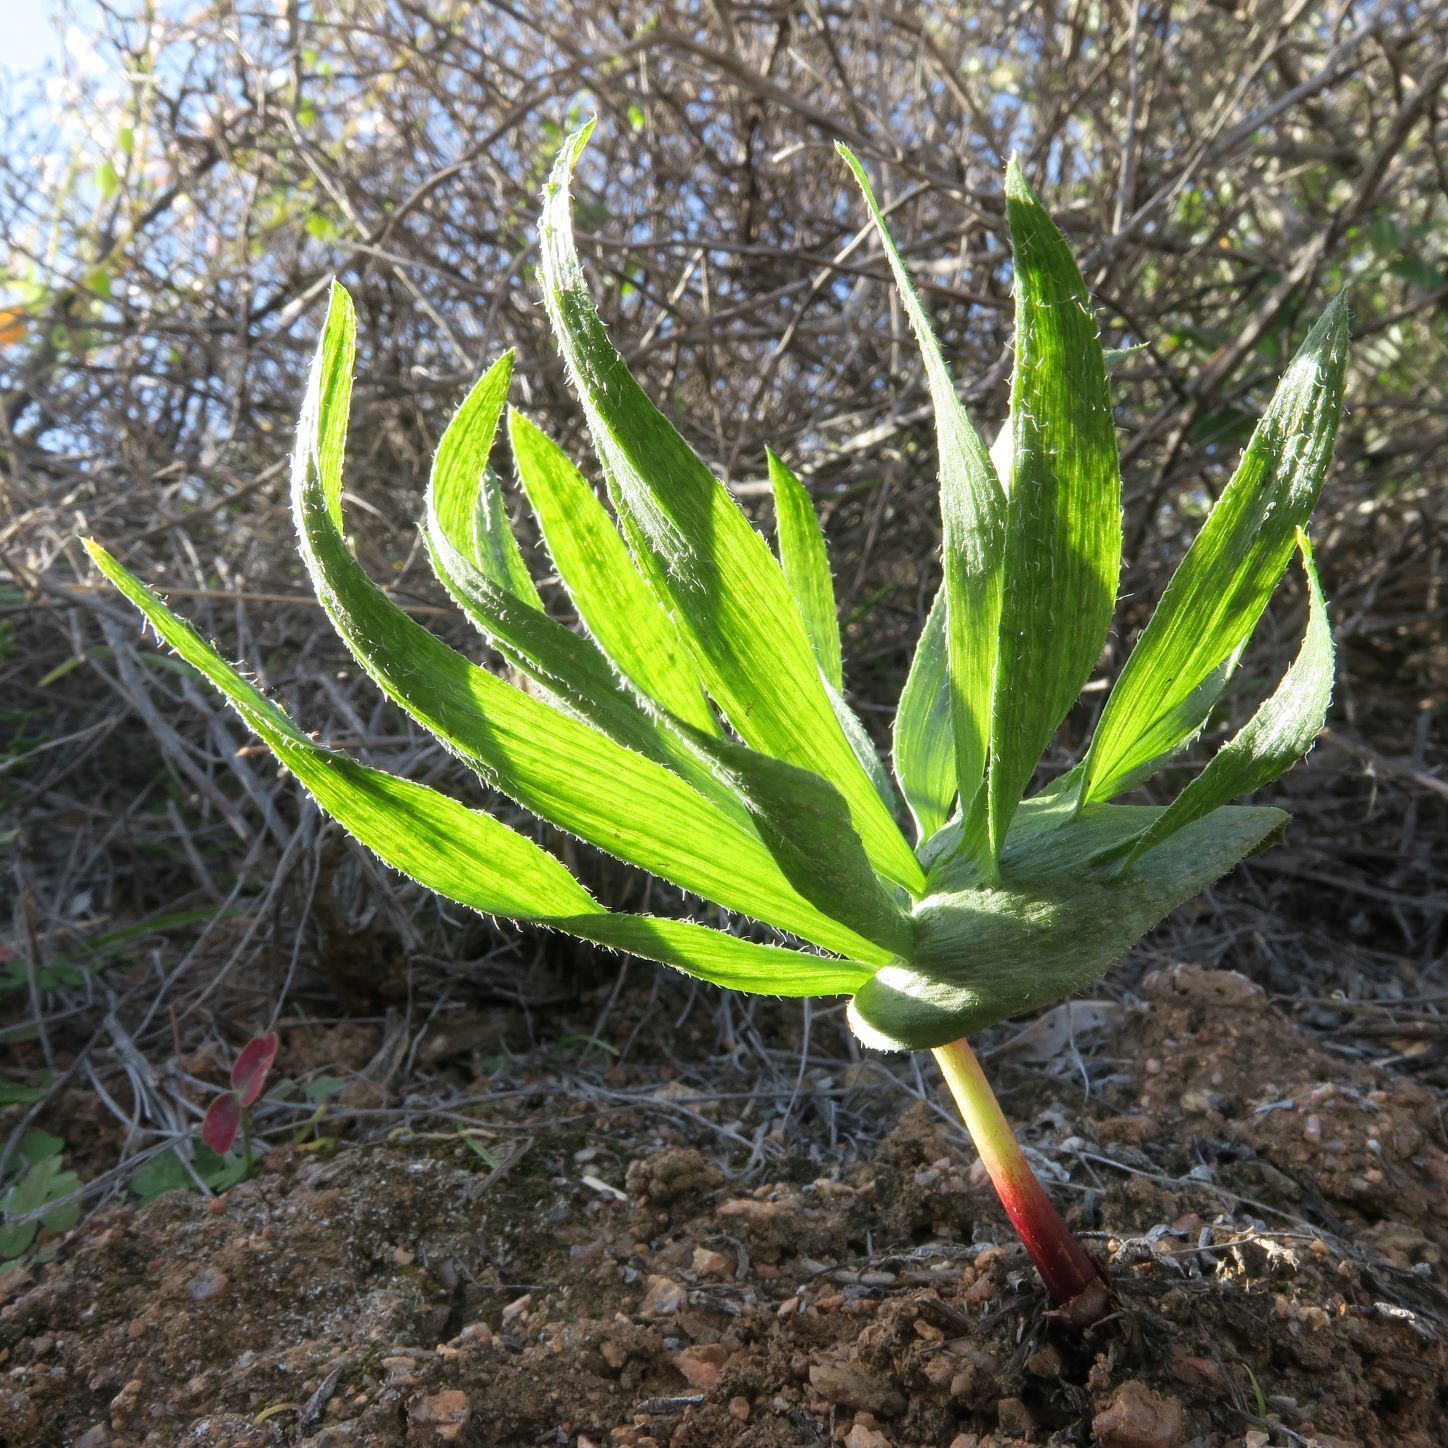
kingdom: Plantae
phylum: Tracheophyta
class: Liliopsida
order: Asparagales
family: Asparagaceae
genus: Eriospermum
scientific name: Eriospermum alcicorne
